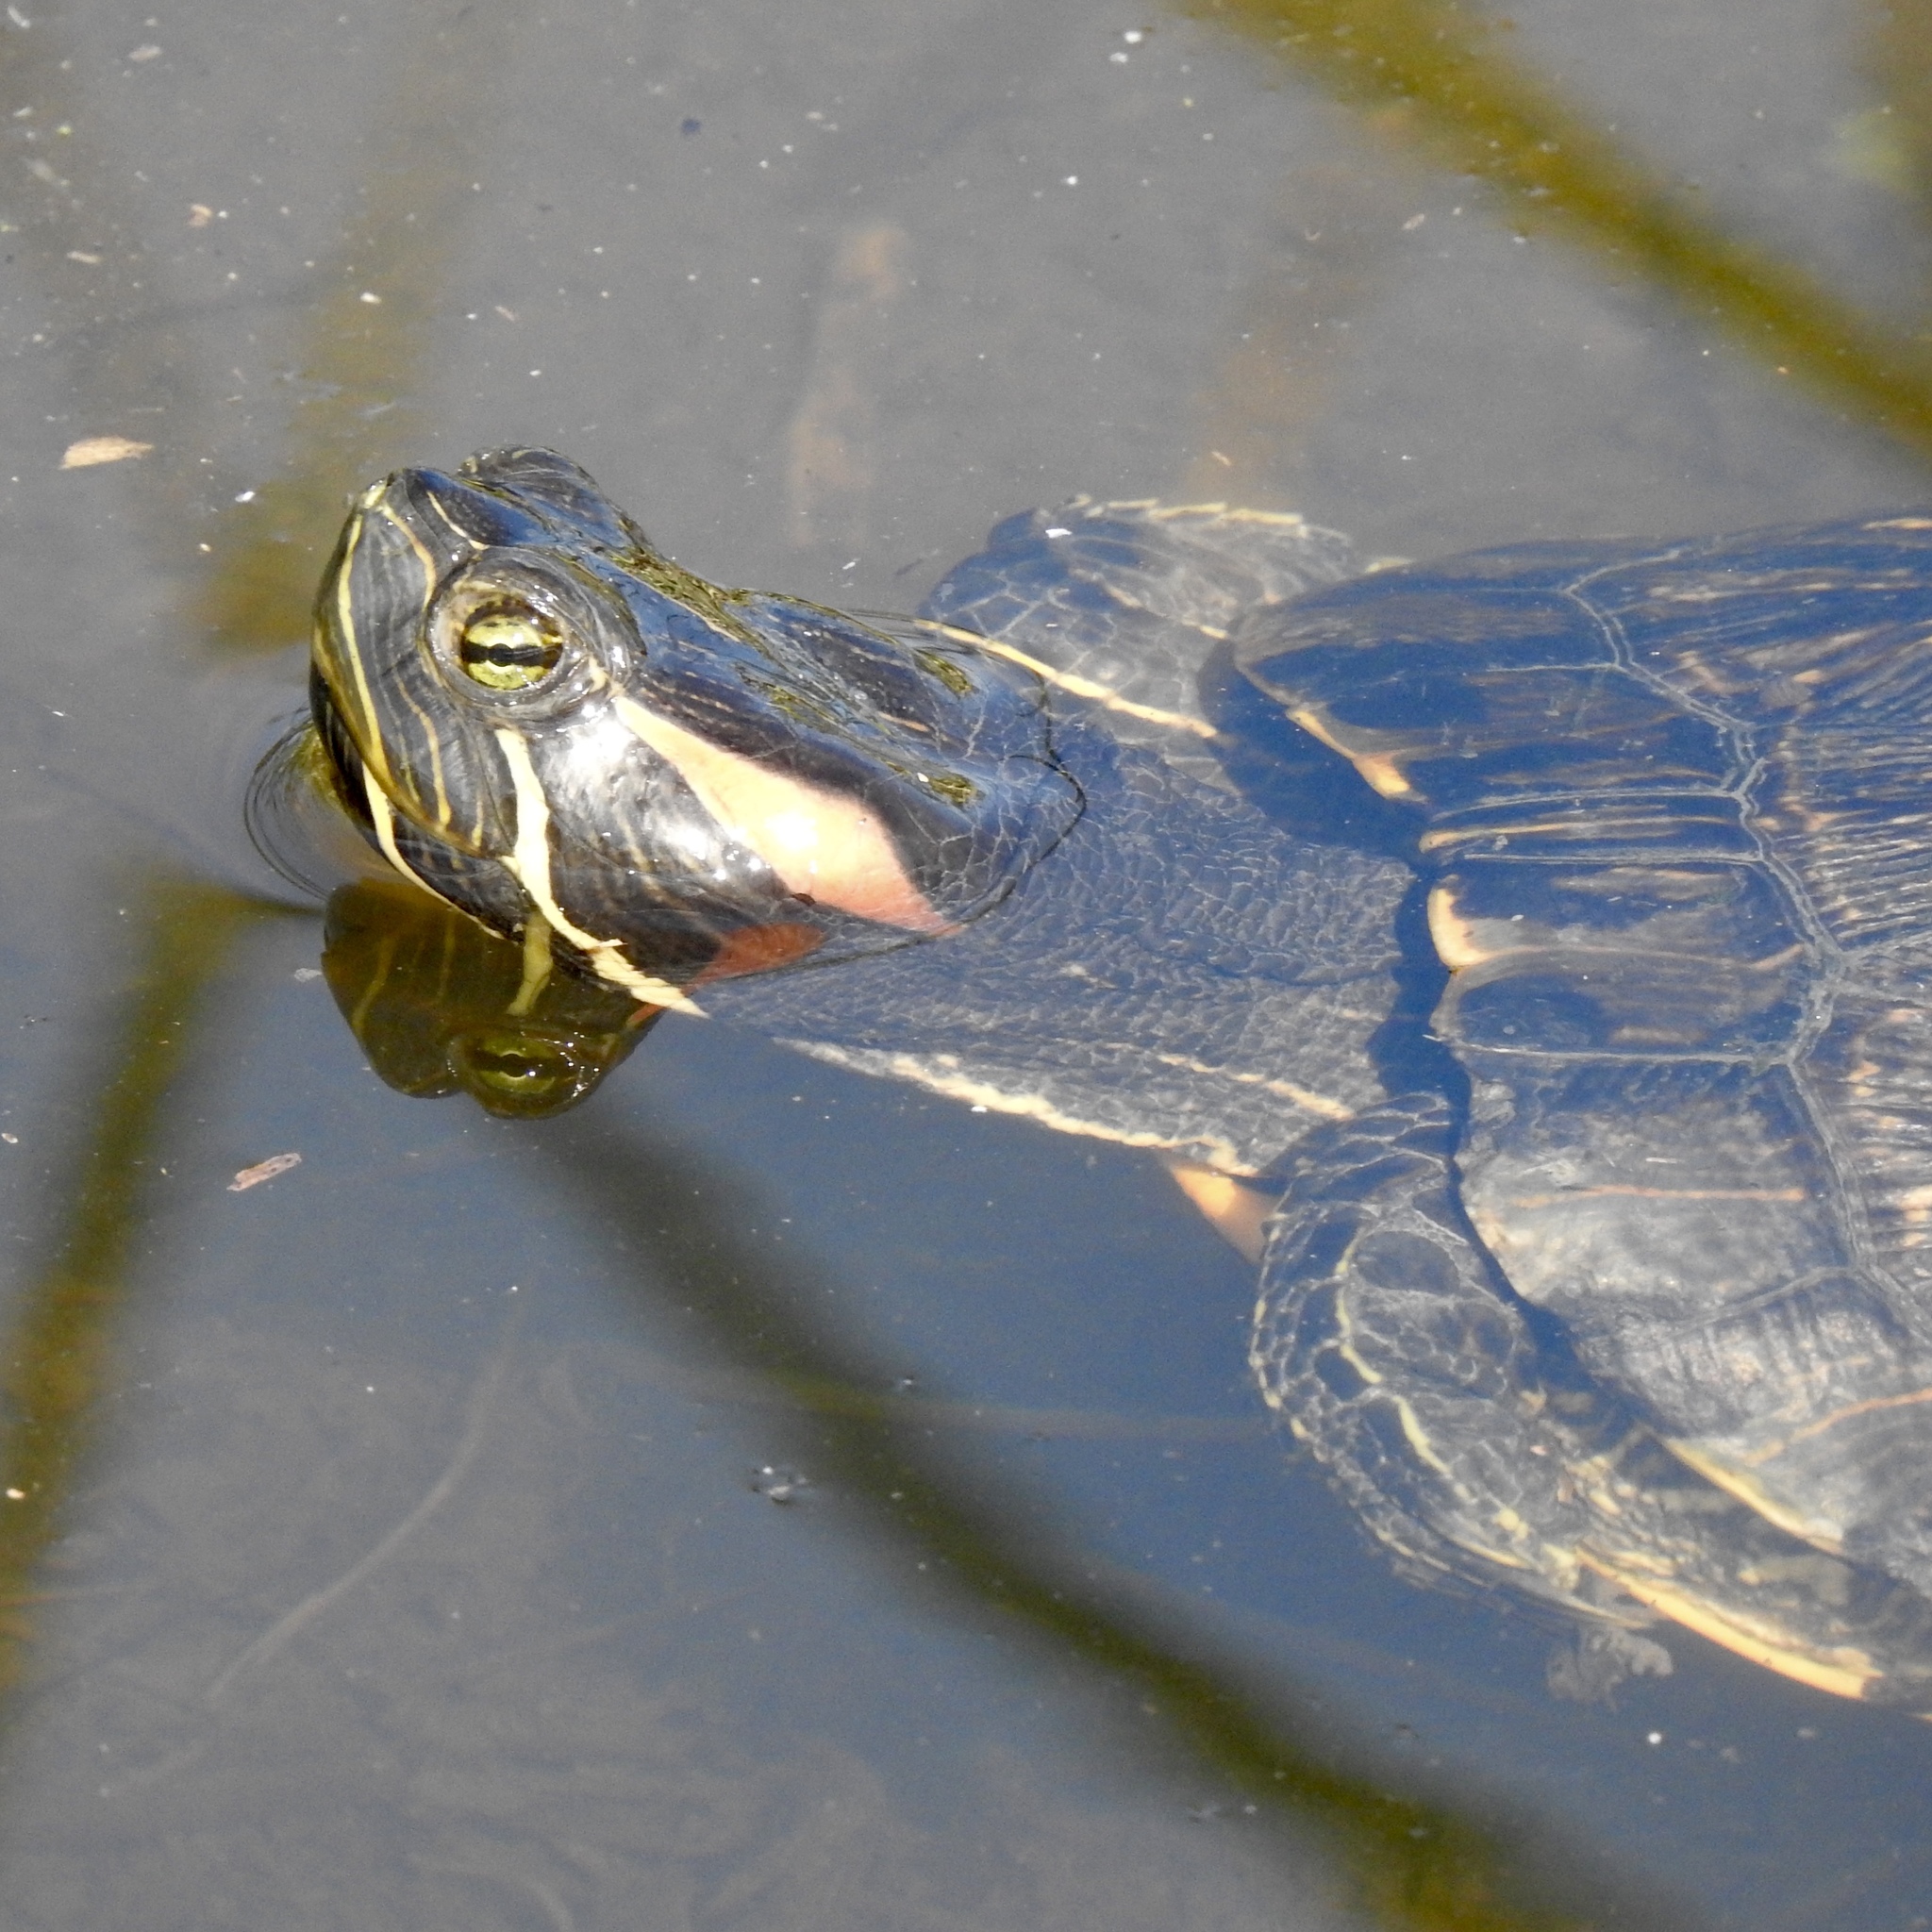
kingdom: Animalia
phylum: Chordata
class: Testudines
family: Emydidae
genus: Trachemys
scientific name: Trachemys scripta
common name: Slider
